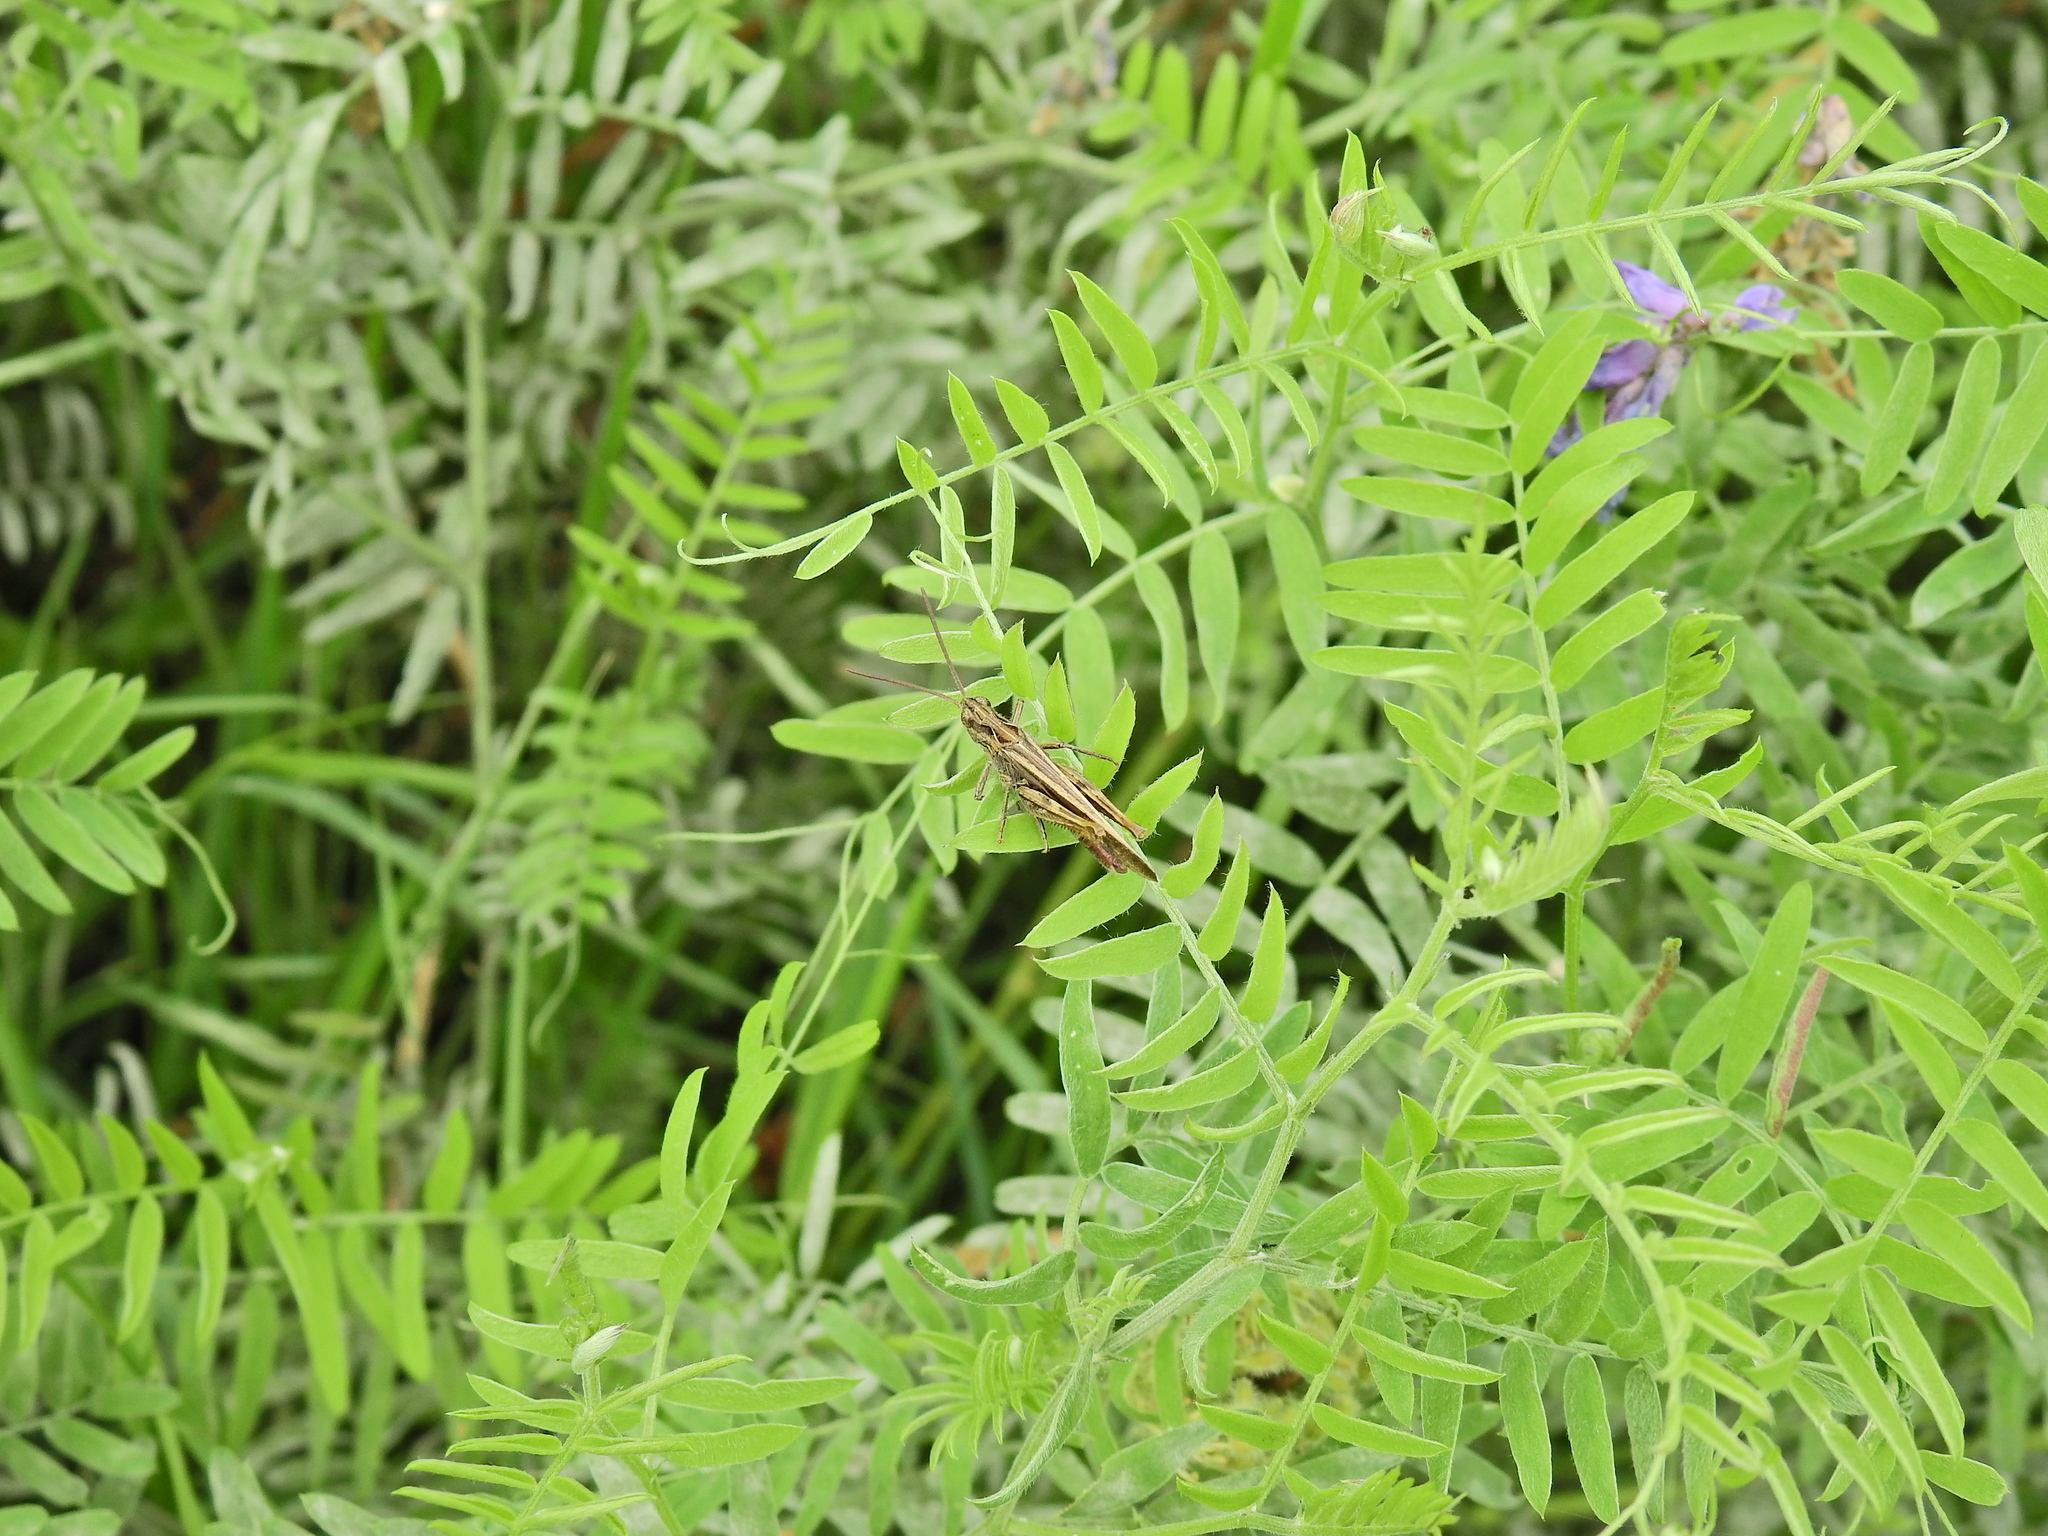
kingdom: Animalia
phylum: Arthropoda
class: Insecta
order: Orthoptera
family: Acrididae
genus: Chorthippus
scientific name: Chorthippus brunneus
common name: Field grasshopper
